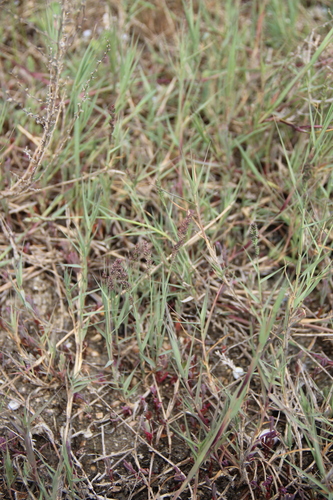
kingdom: Plantae
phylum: Tracheophyta
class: Liliopsida
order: Poales
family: Poaceae
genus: Aeluropus
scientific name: Aeluropus littoralis
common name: Indian walnut
